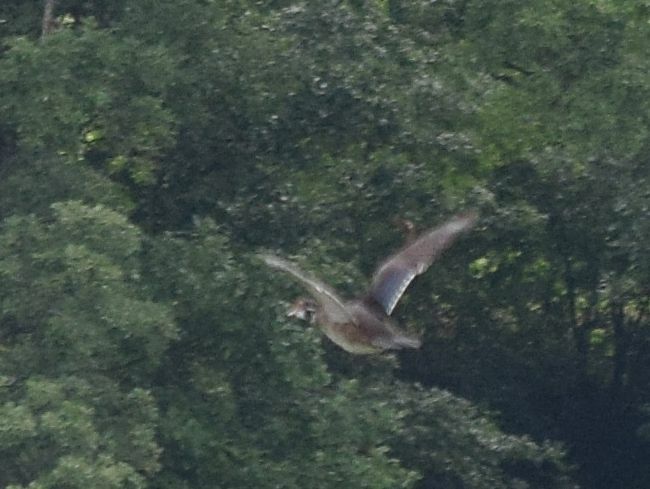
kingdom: Animalia
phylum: Chordata
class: Aves
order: Anseriformes
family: Anatidae
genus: Aix
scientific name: Aix sponsa
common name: Wood duck
